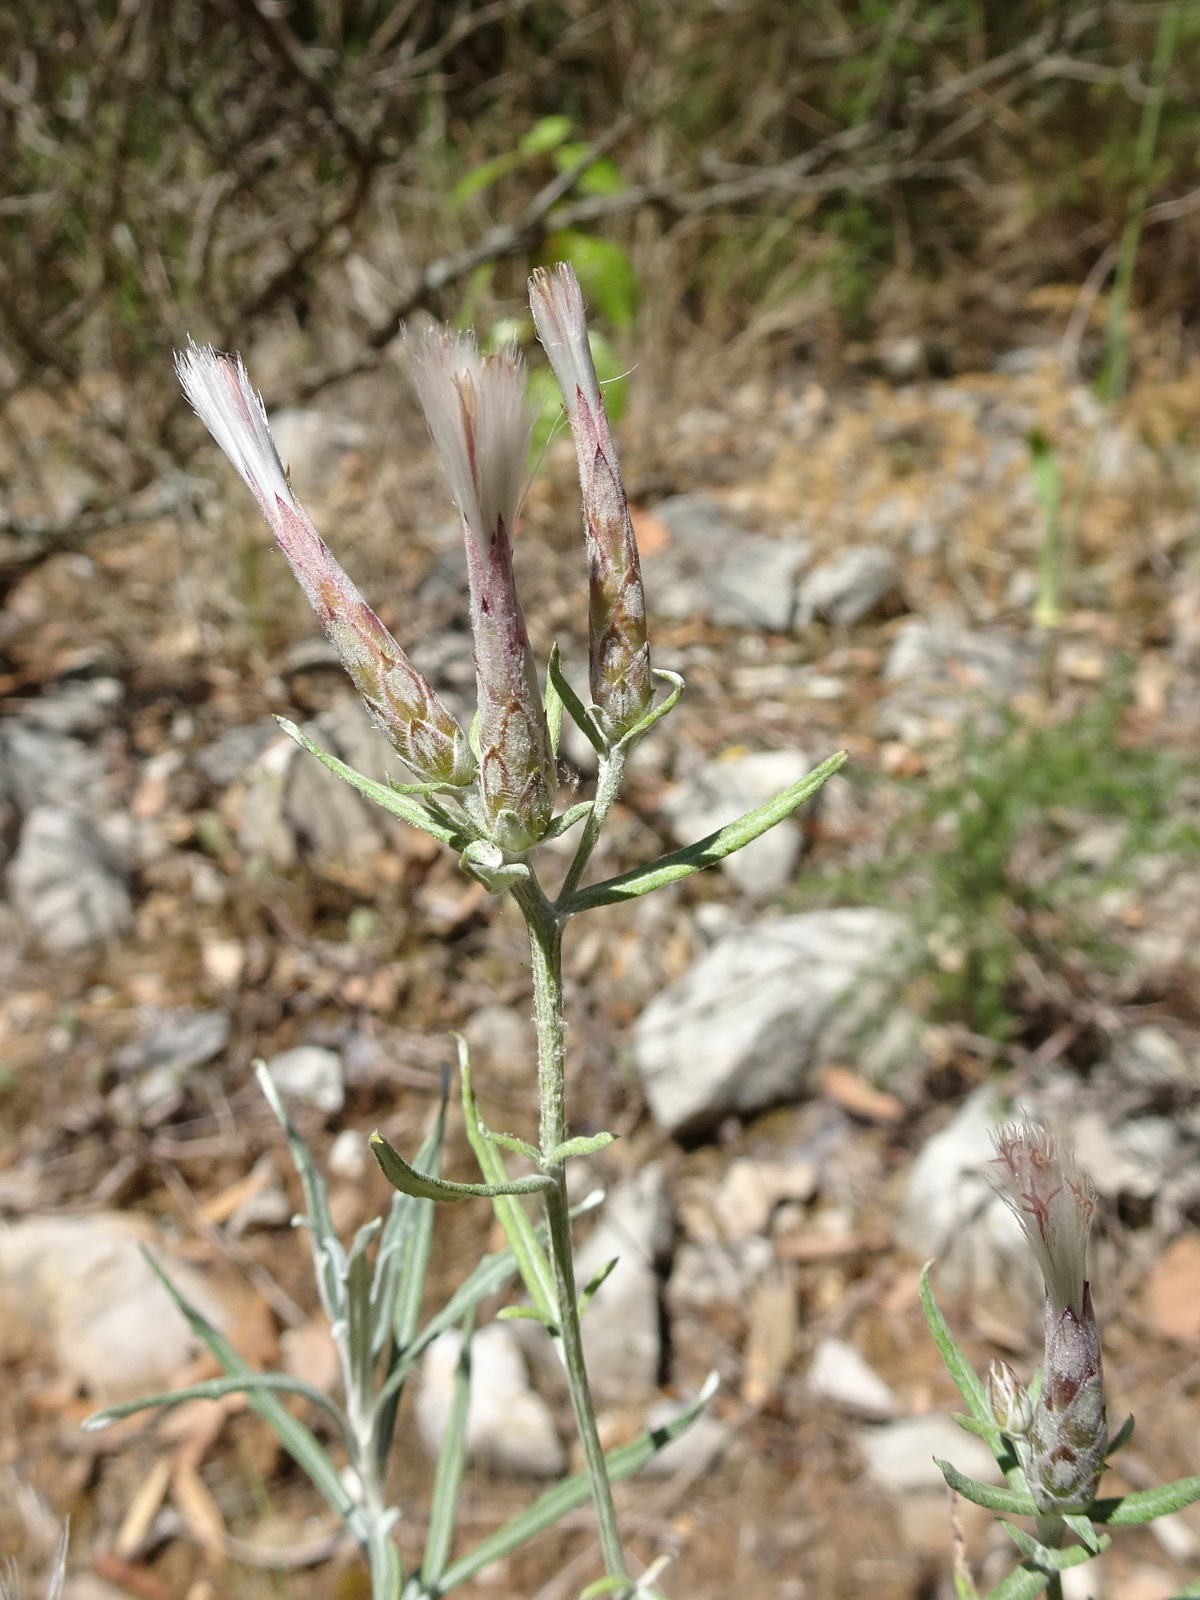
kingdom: Plantae
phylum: Tracheophyta
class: Magnoliopsida
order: Asterales
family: Asteraceae
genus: Staehelina
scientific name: Staehelina dubia
